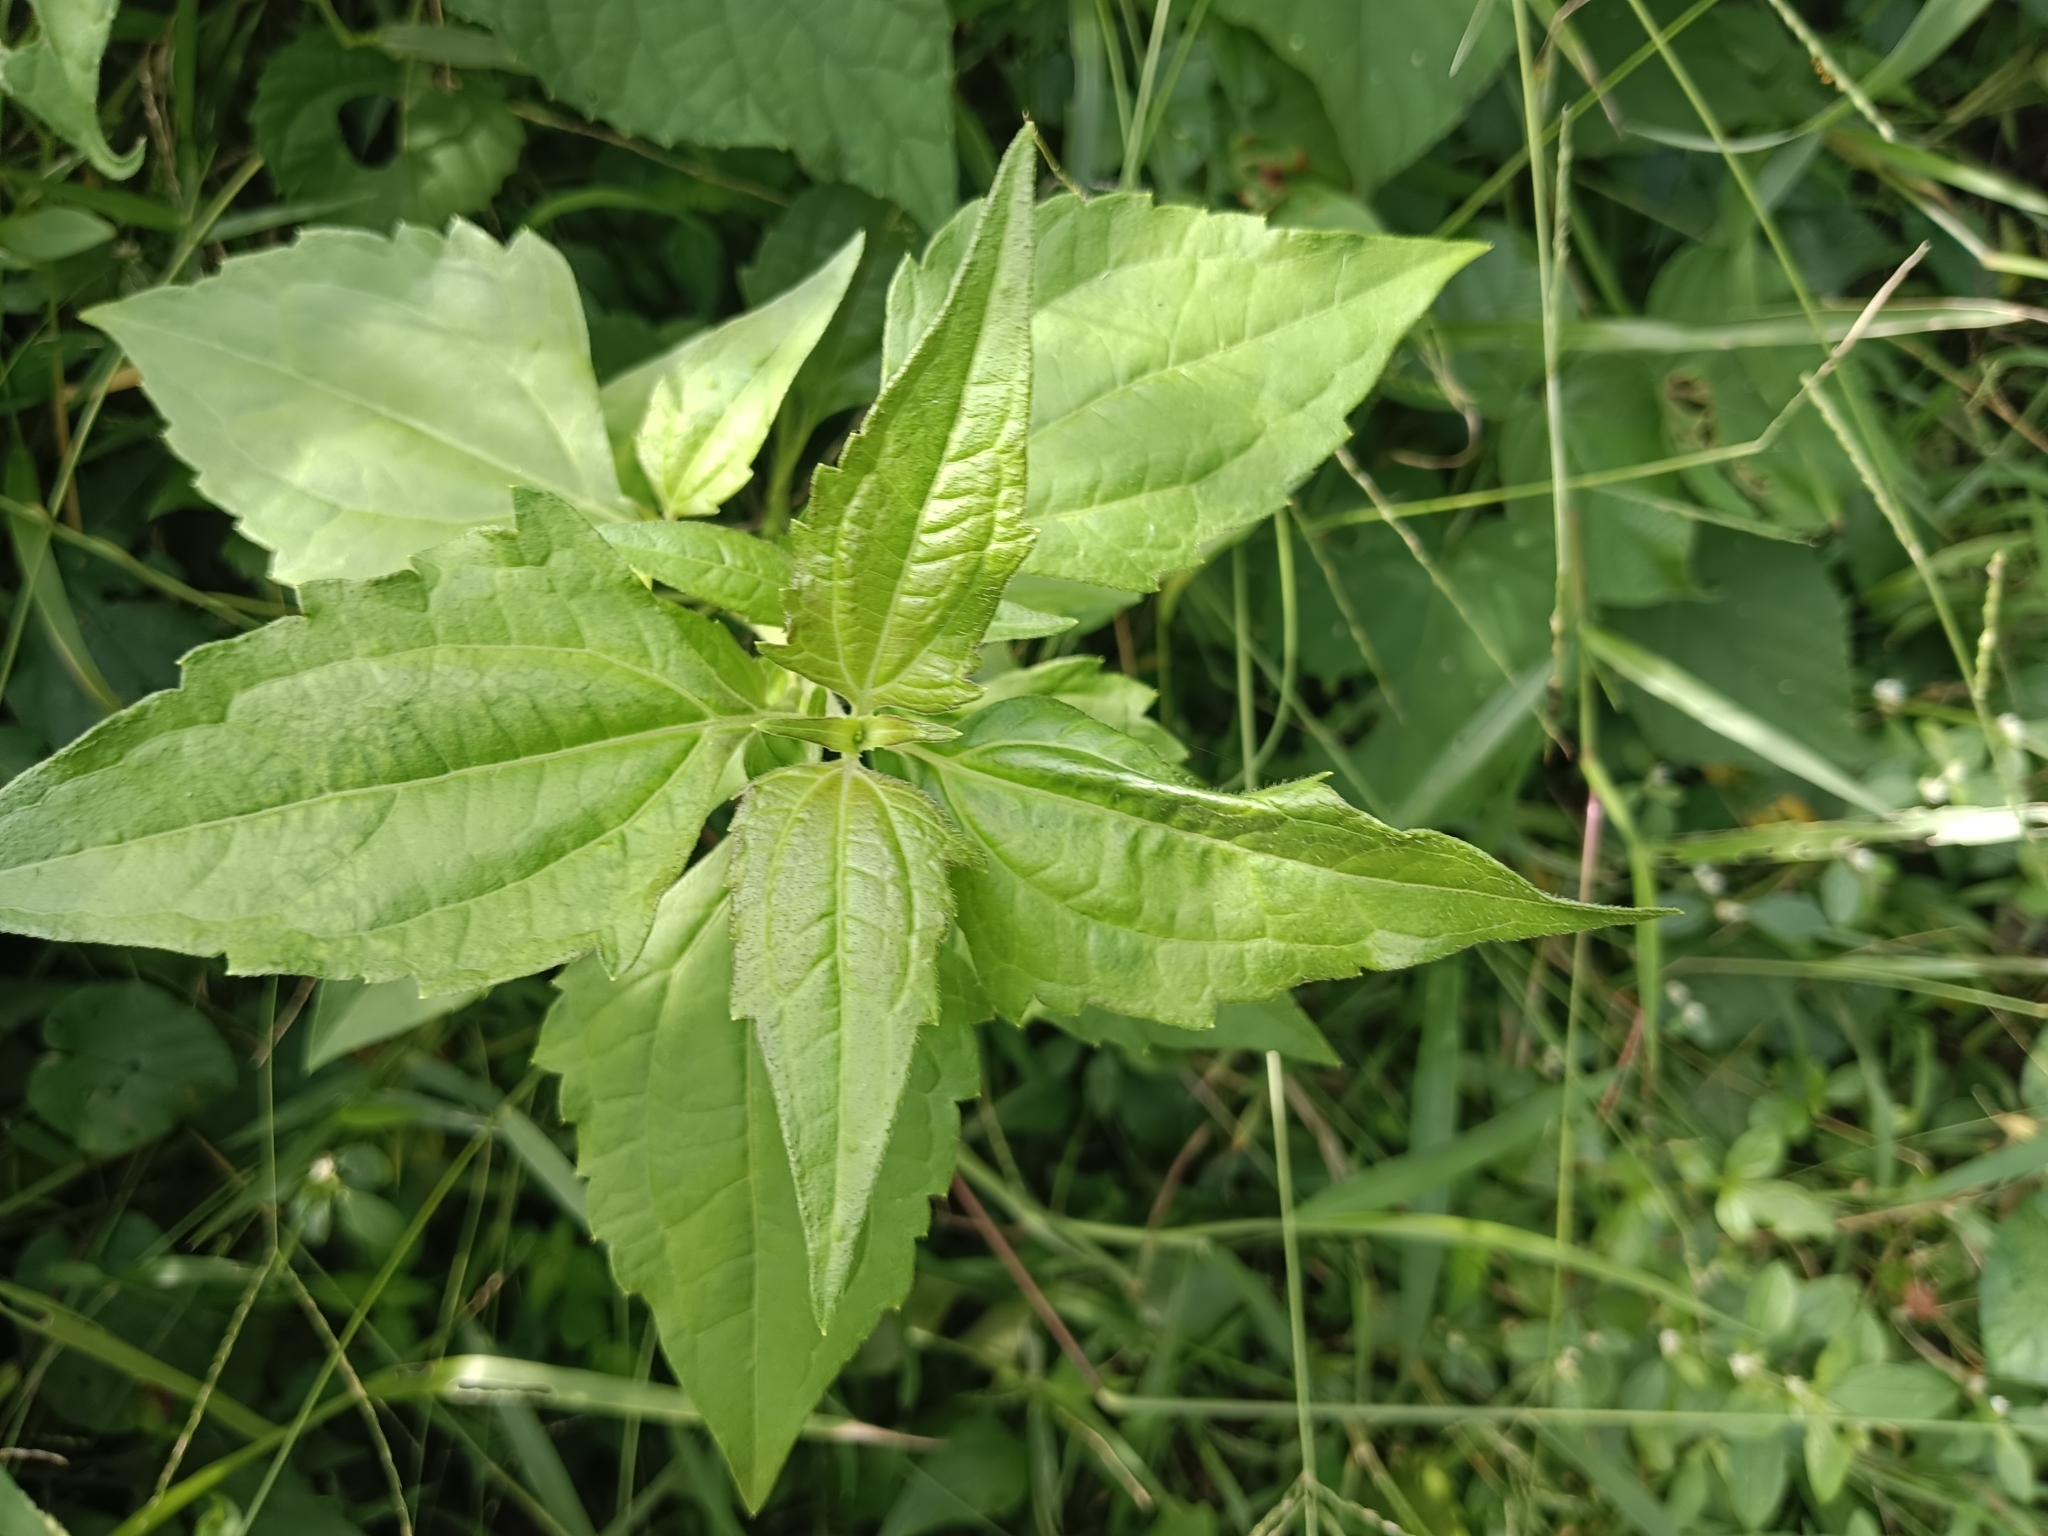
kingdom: Plantae
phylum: Tracheophyta
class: Magnoliopsida
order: Asterales
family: Asteraceae
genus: Chromolaena
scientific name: Chromolaena odorata
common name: Siamweed
